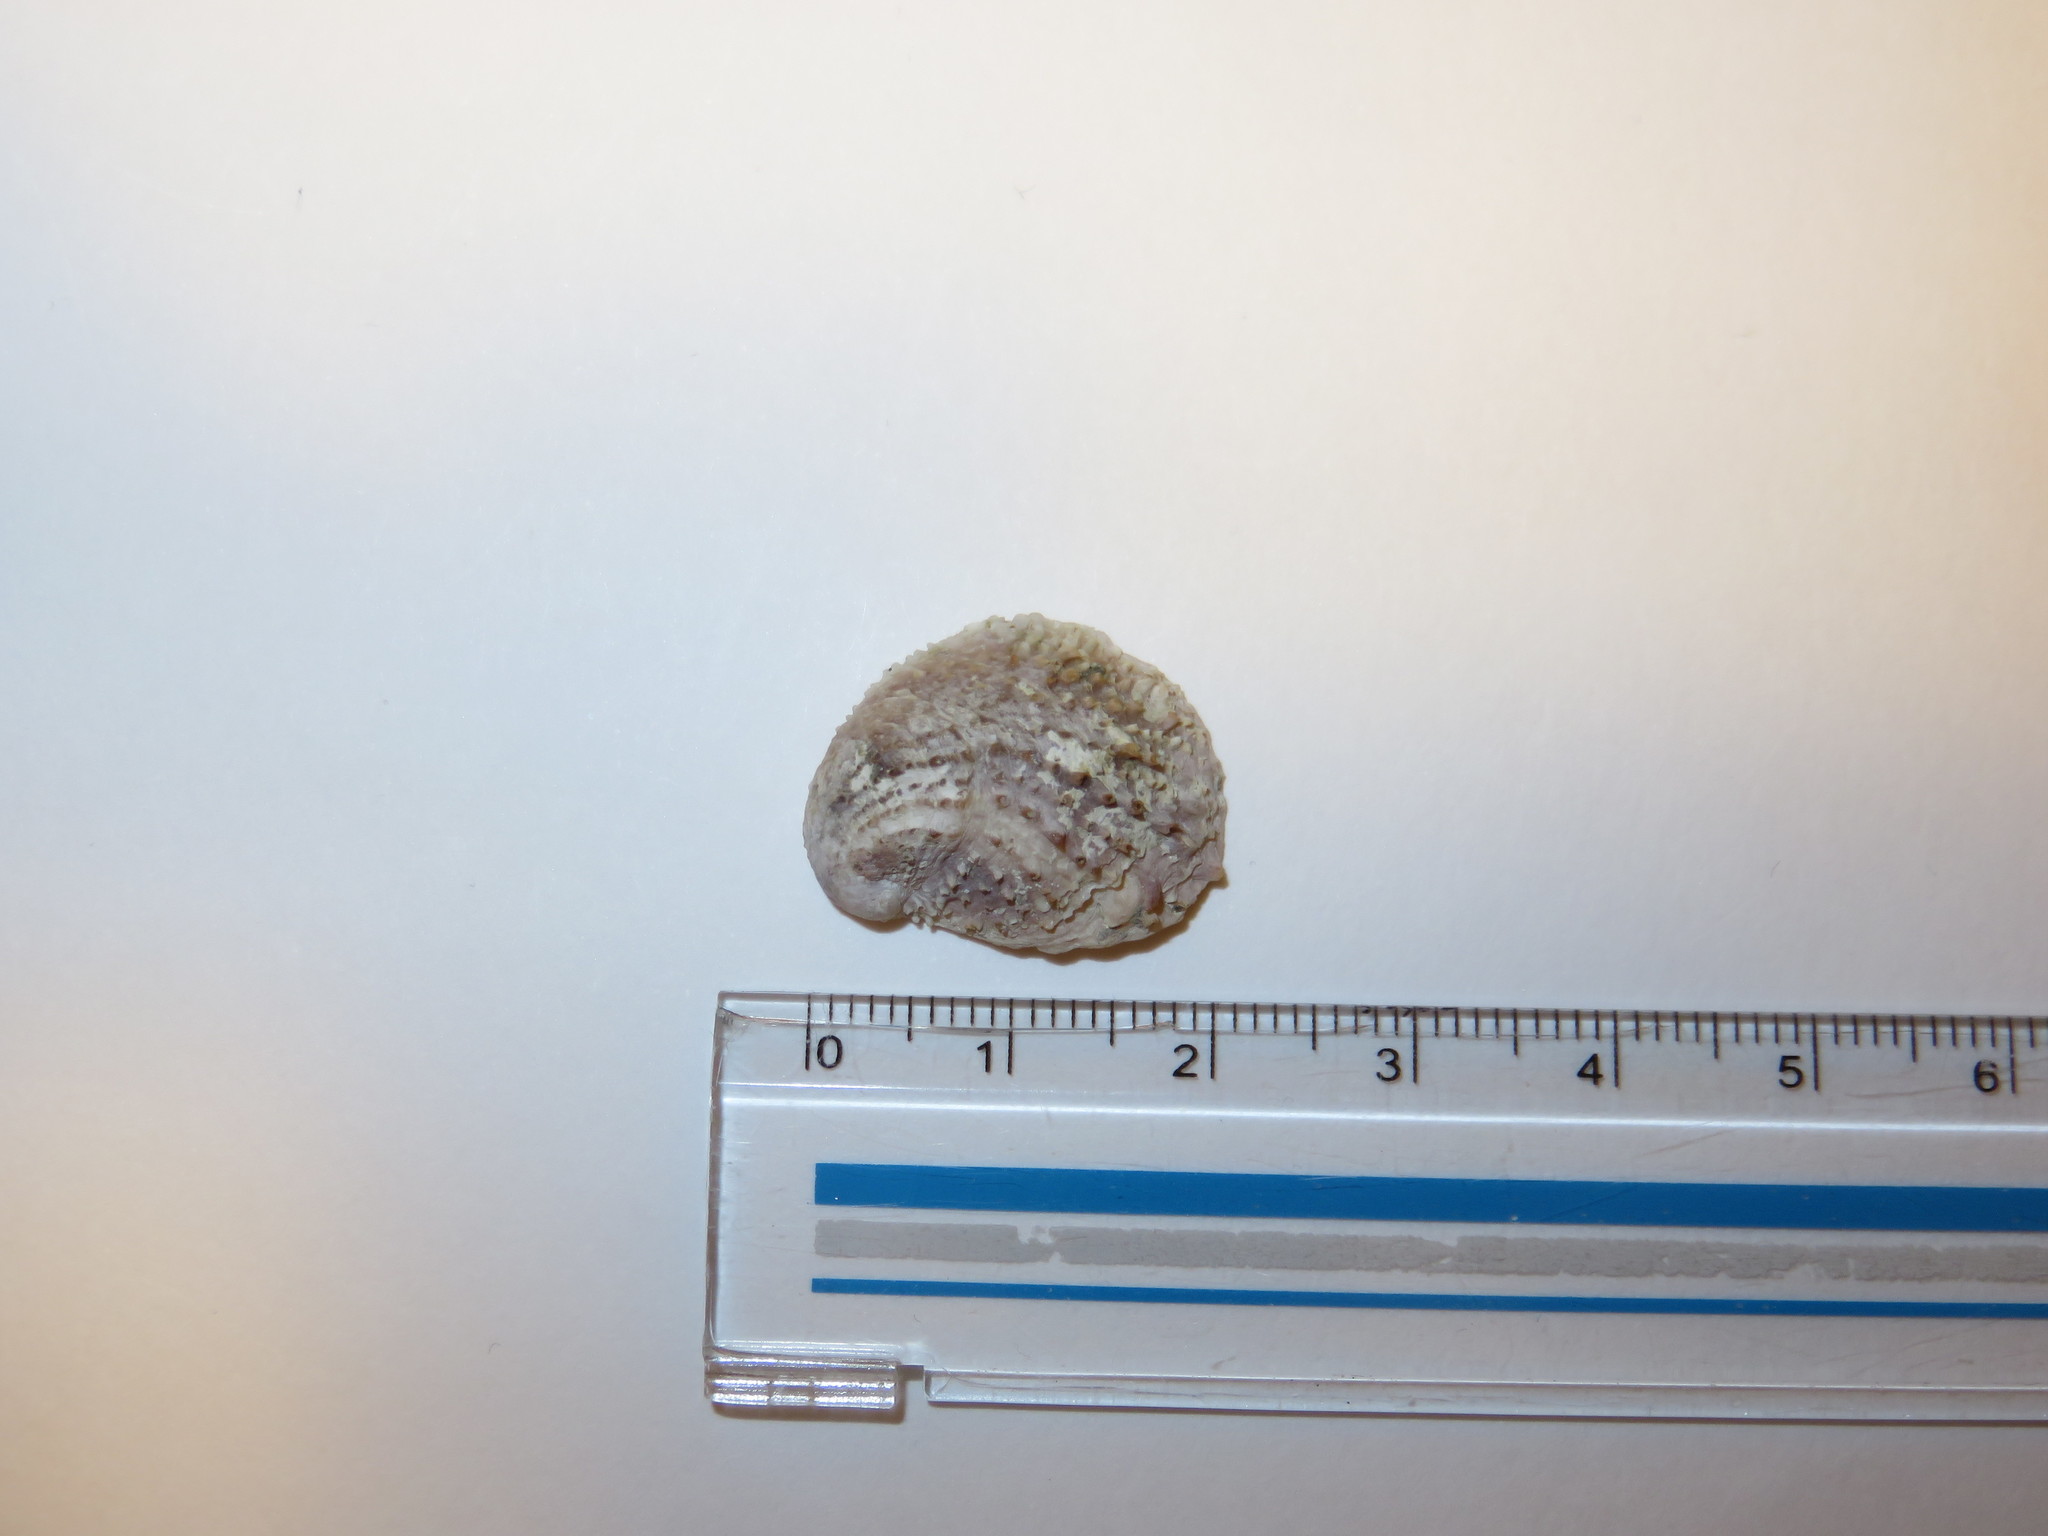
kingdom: Animalia
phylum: Mollusca
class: Gastropoda
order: Littorinimorpha
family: Calyptraeidae
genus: Bostrycapulus
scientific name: Bostrycapulus gravispinosus
